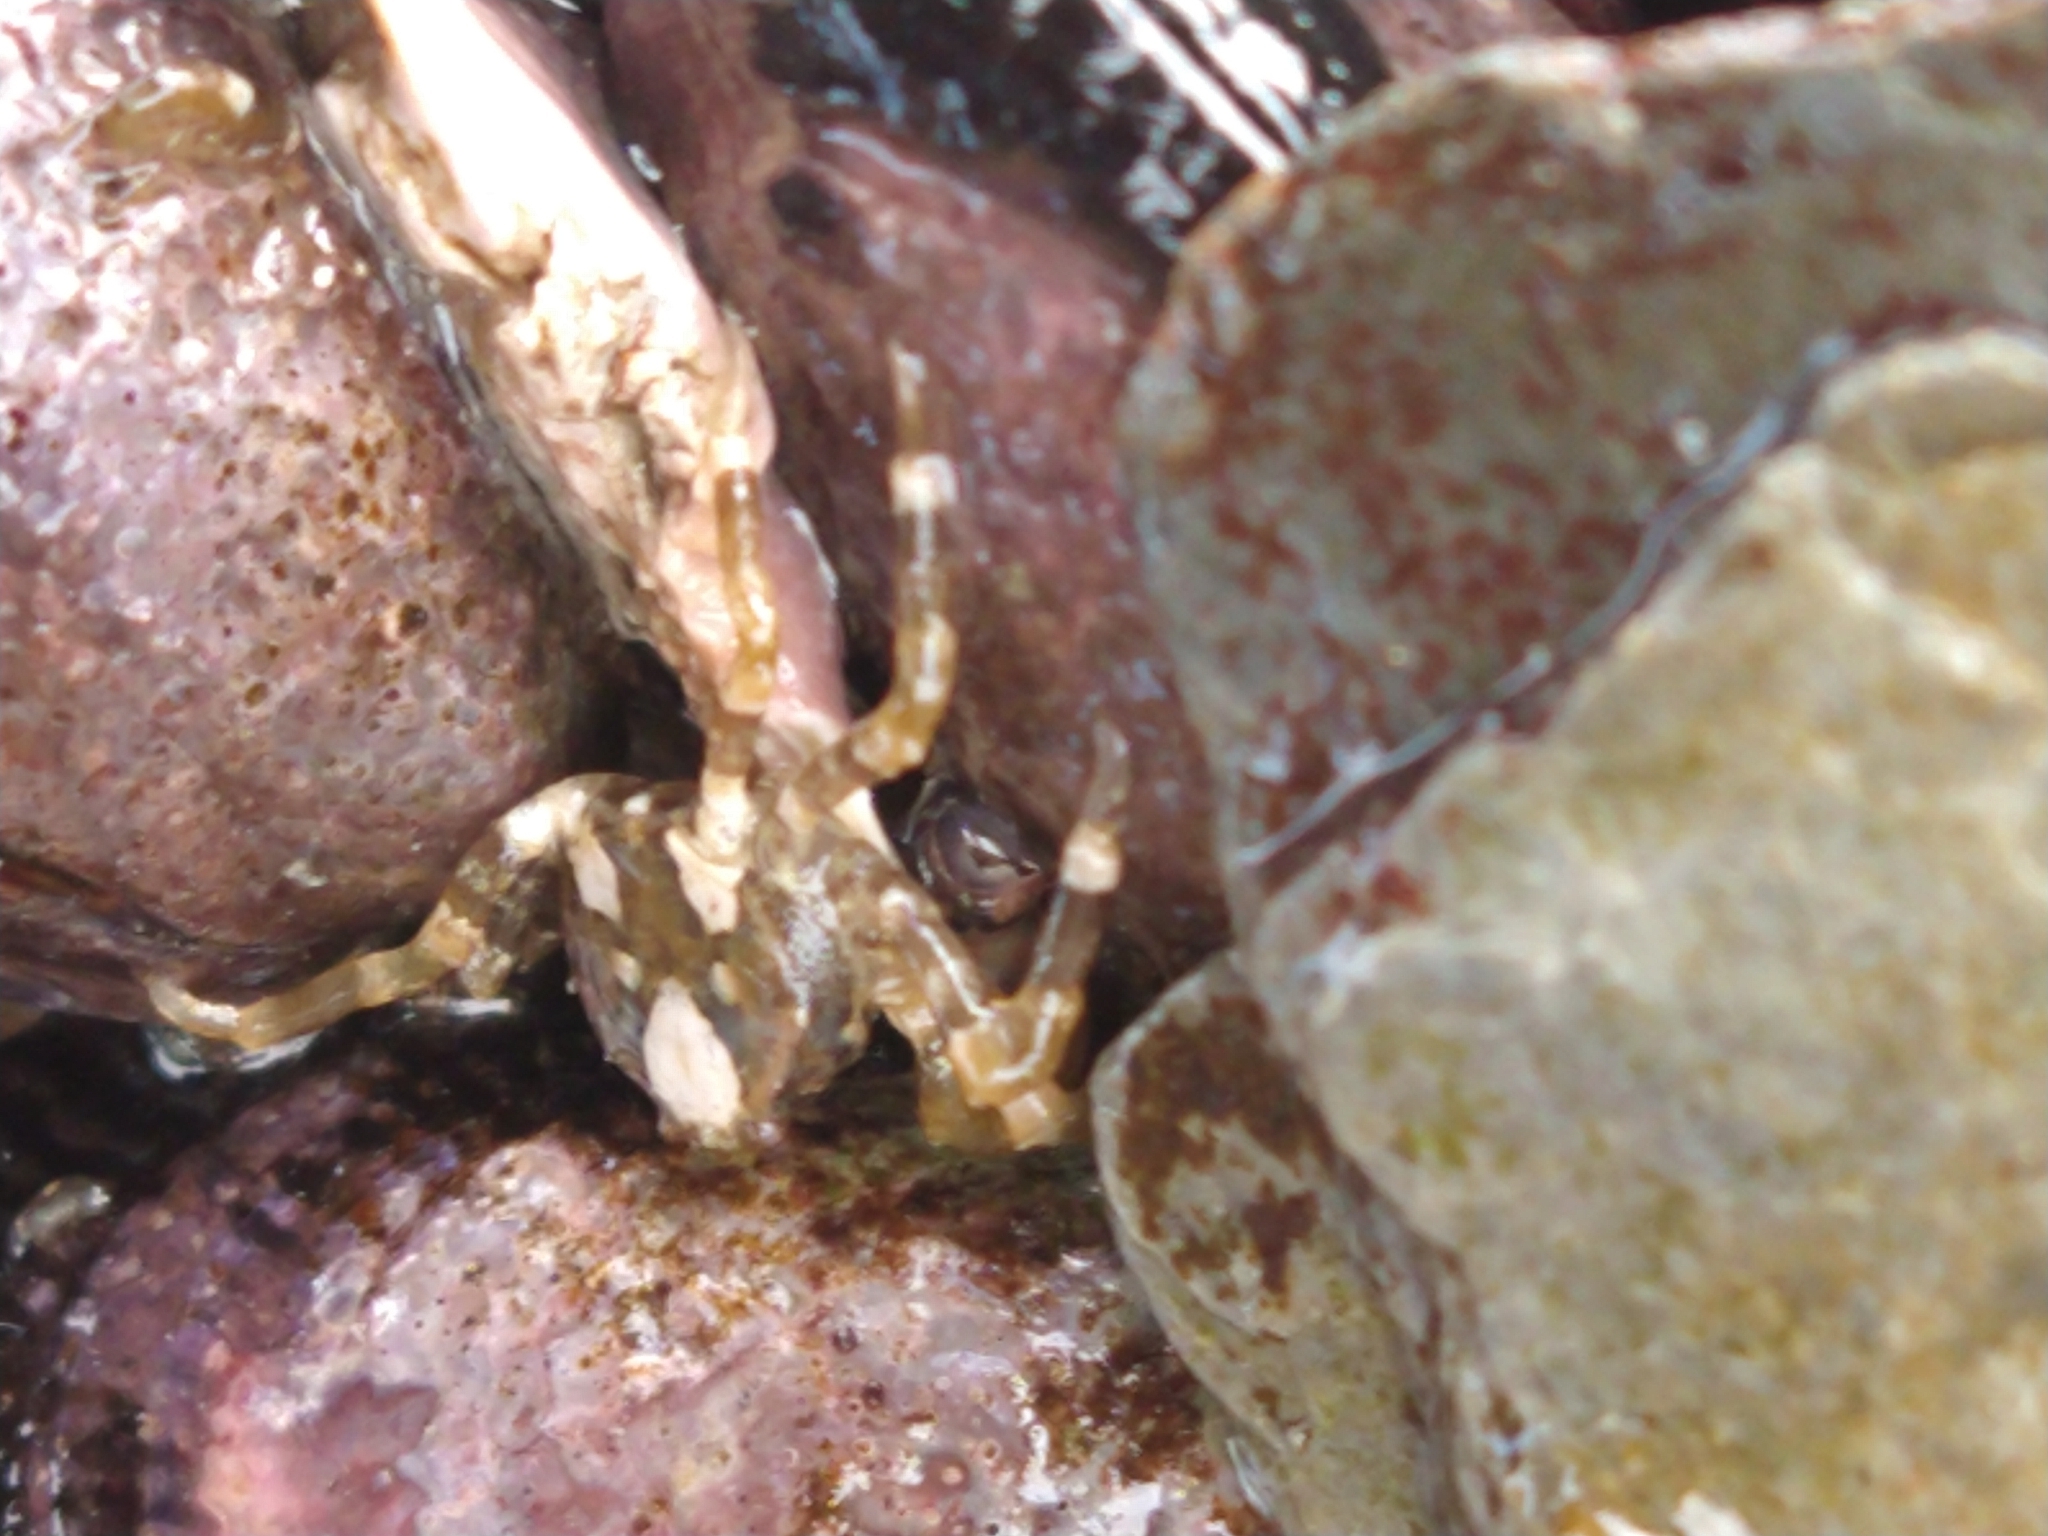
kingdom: Animalia
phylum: Arthropoda
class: Malacostraca
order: Decapoda
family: Hymenosomatidae
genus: Halicarcinus
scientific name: Halicarcinus planatus
